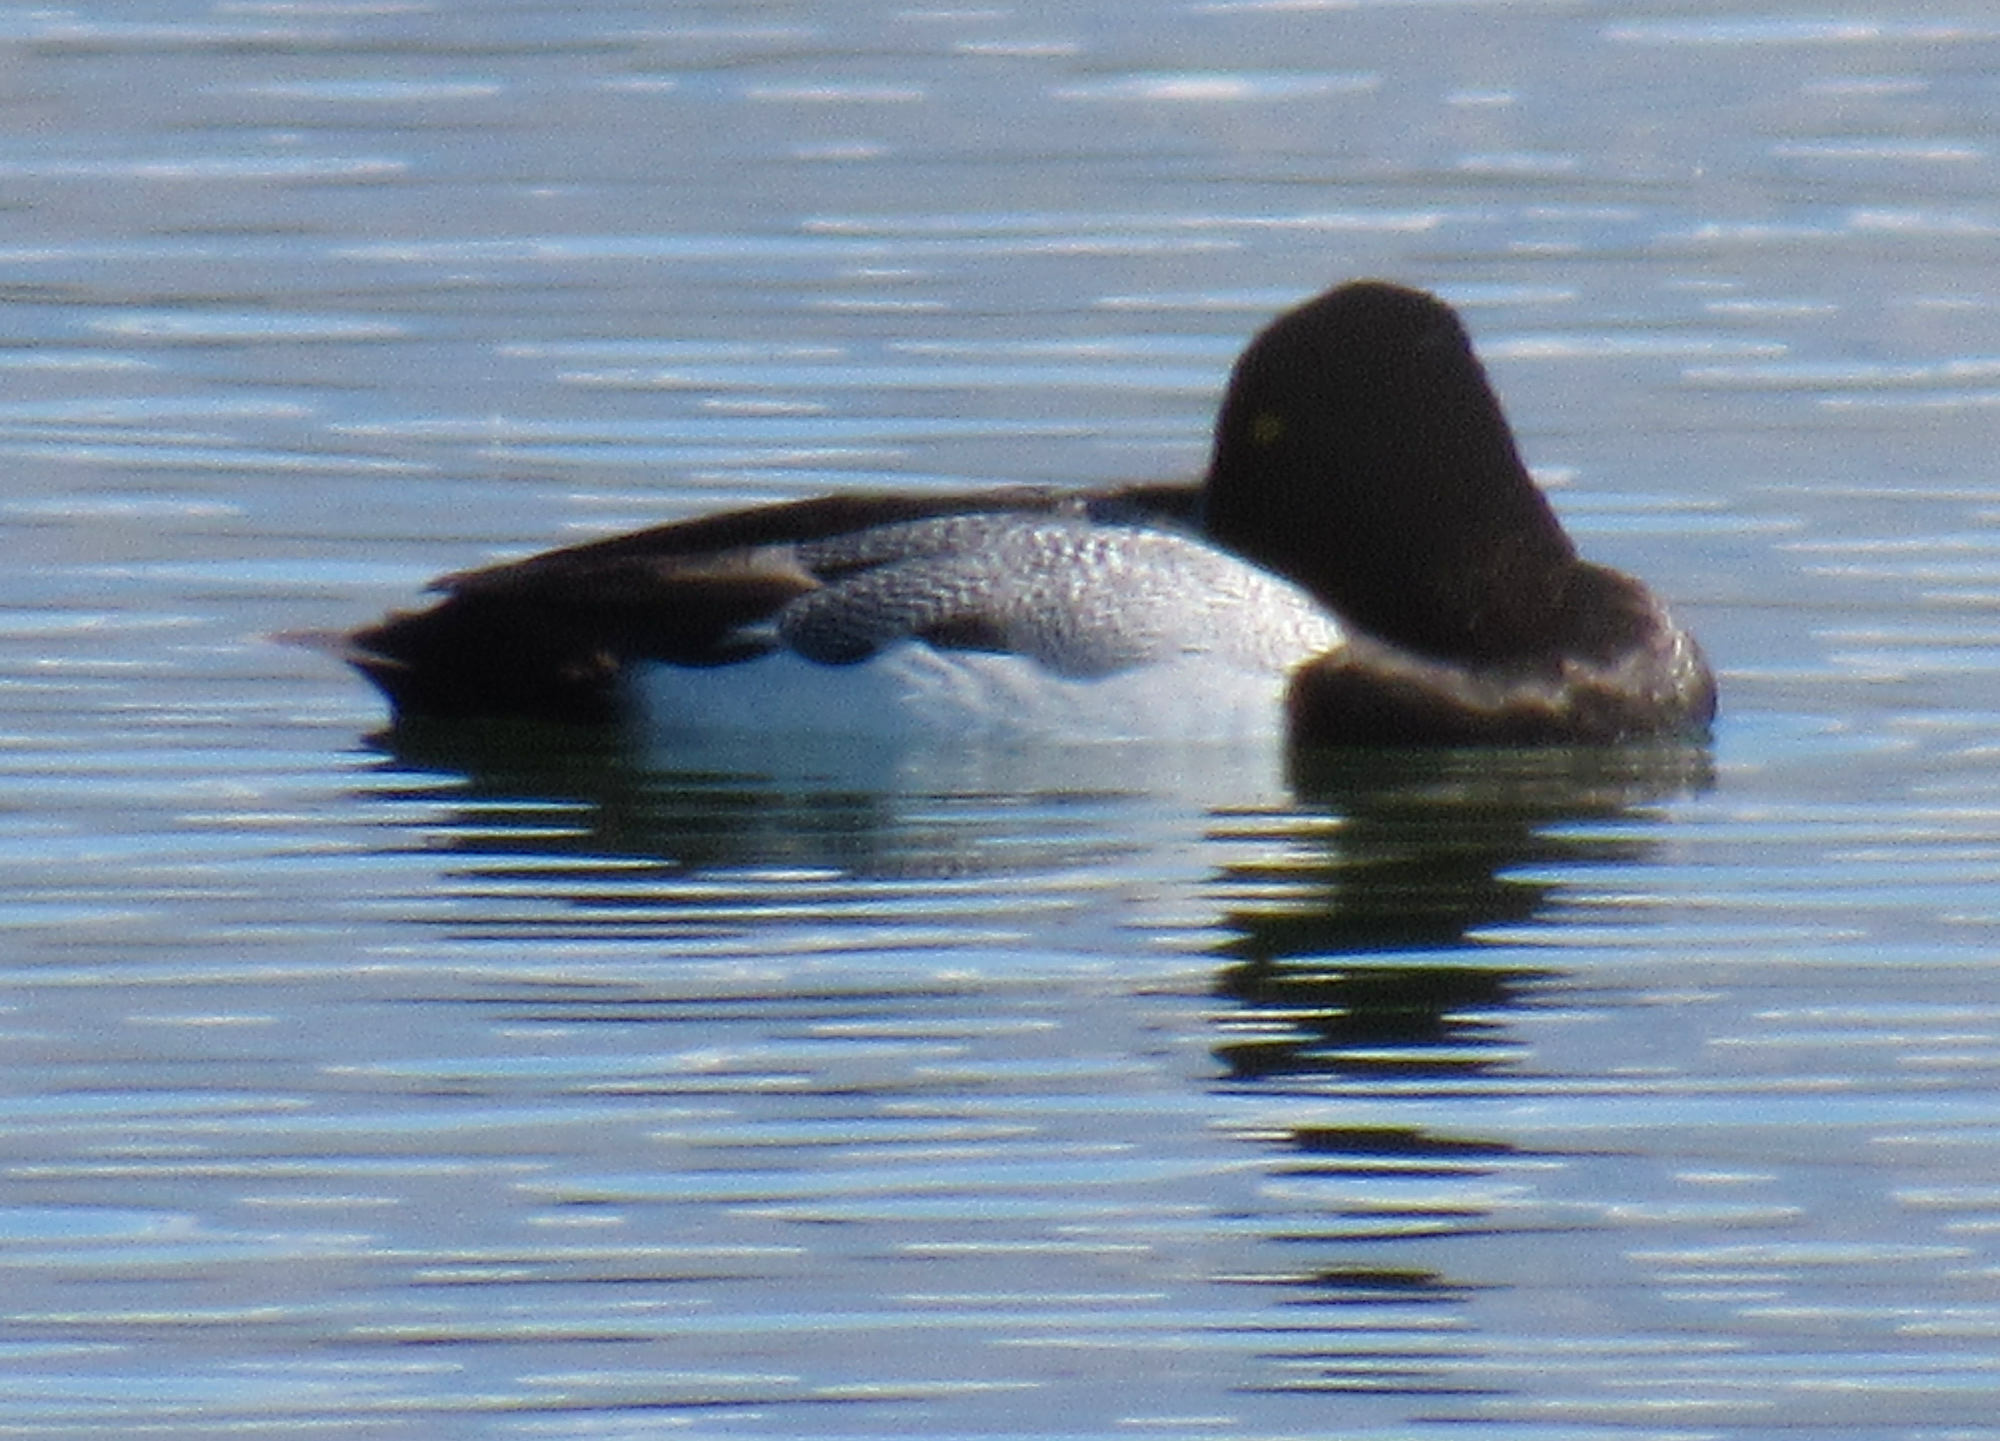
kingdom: Animalia
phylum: Chordata
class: Aves
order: Anseriformes
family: Anatidae
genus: Aythya
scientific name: Aythya affinis
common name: Lesser scaup
